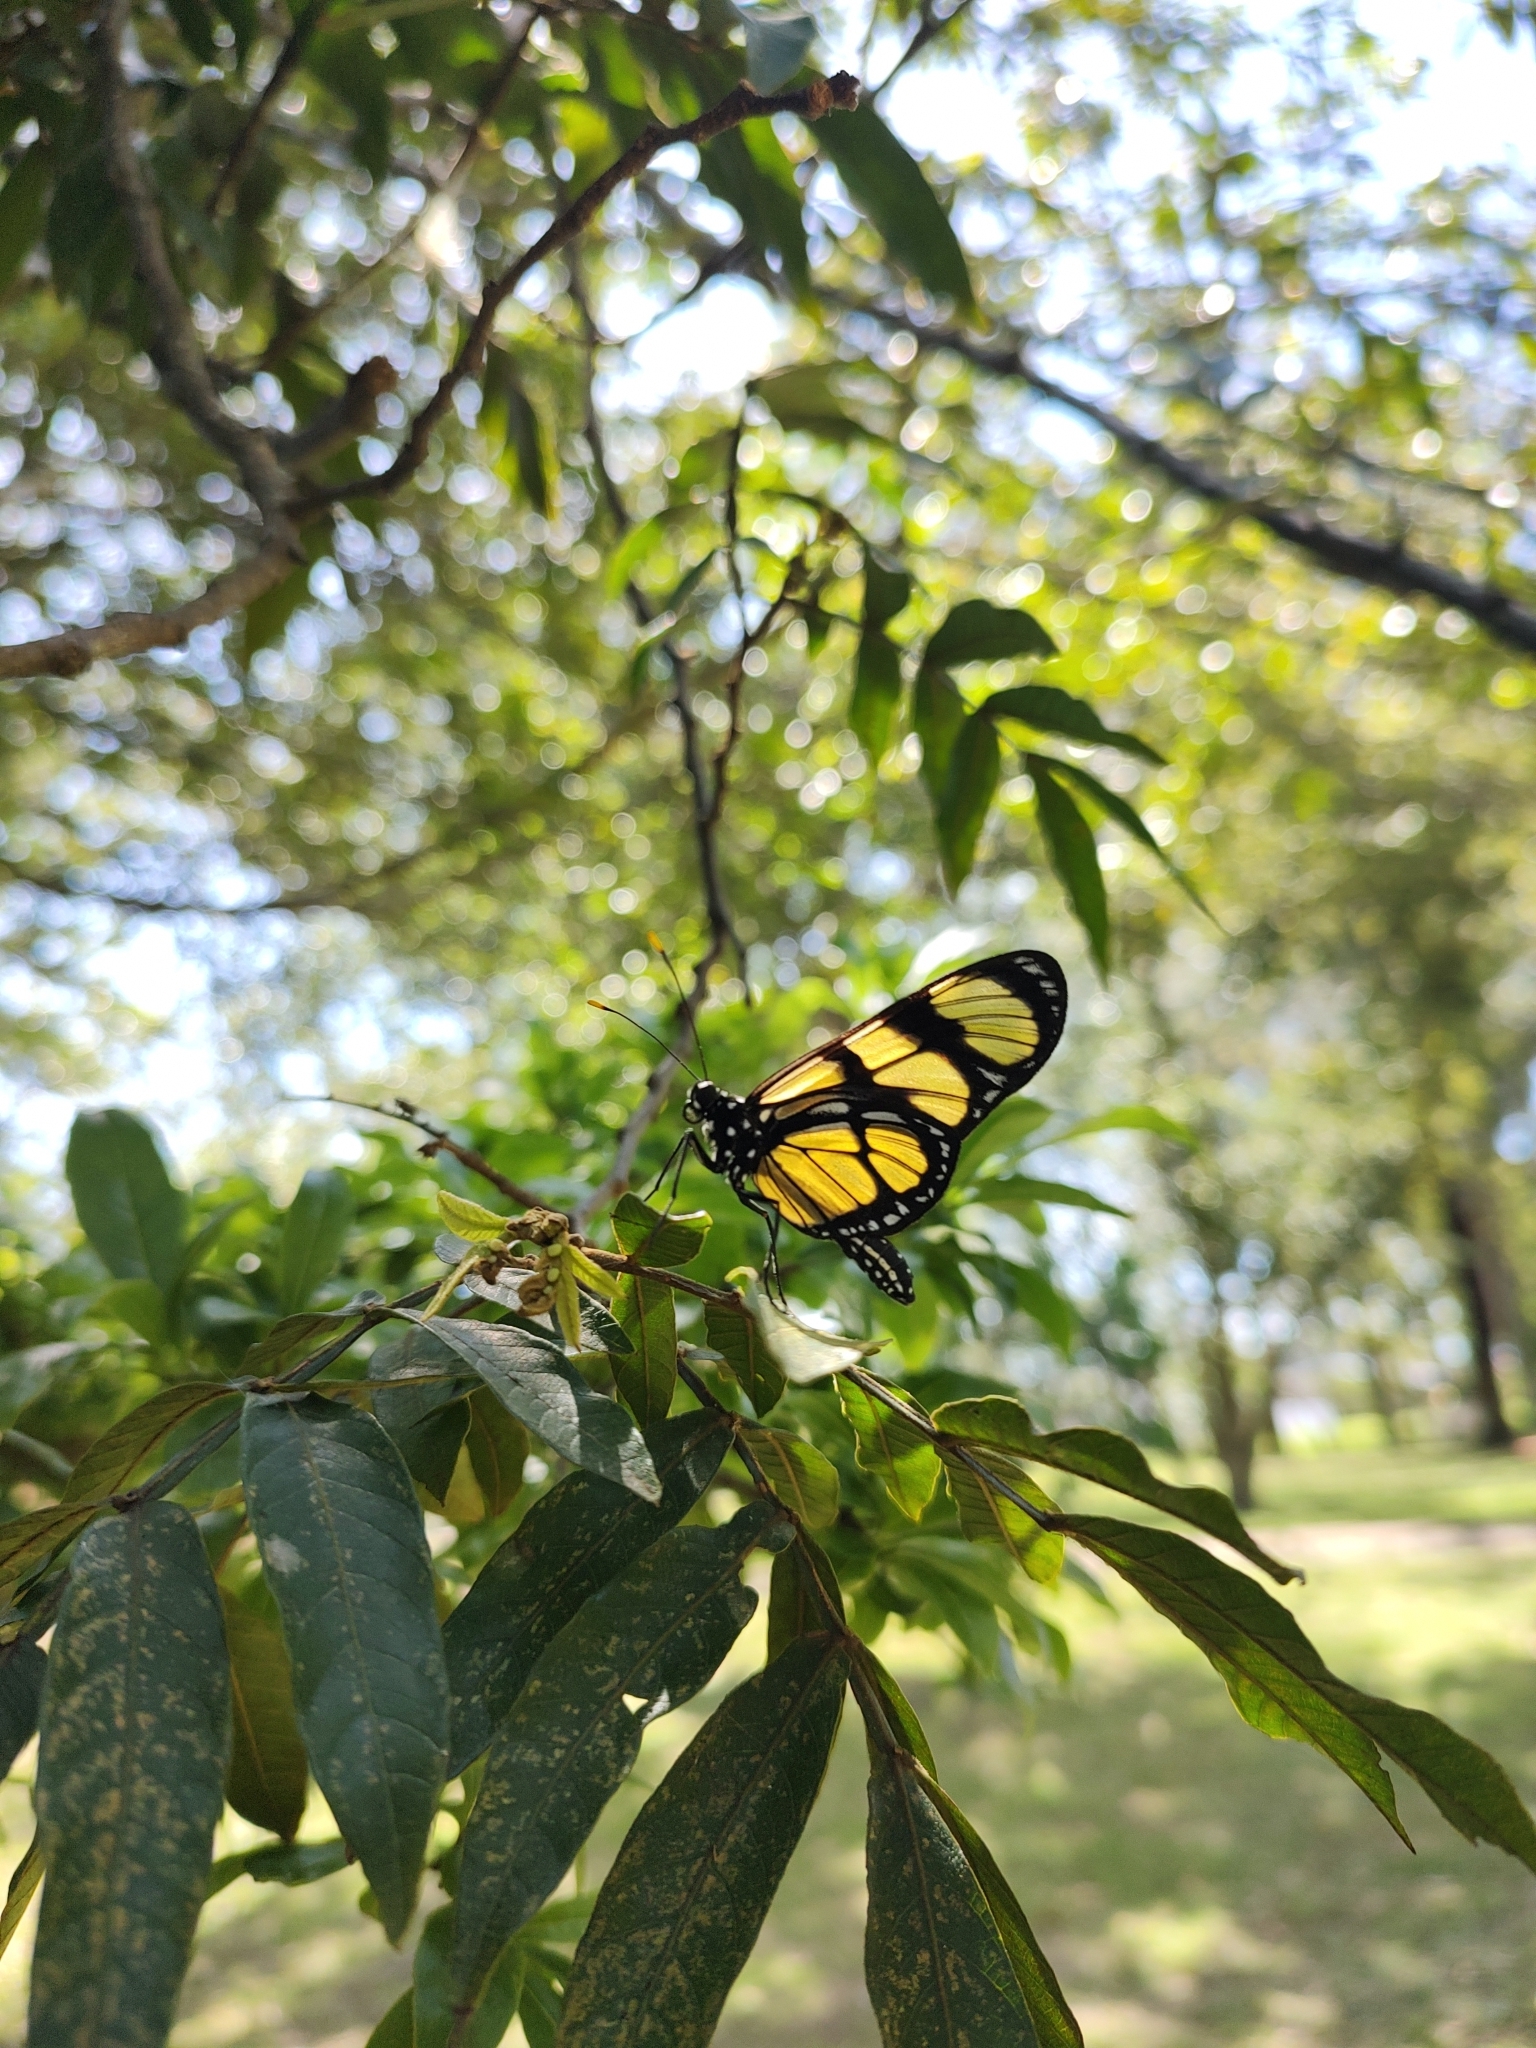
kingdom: Animalia
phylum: Arthropoda
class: Insecta
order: Lepidoptera
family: Nymphalidae
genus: Methona
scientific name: Methona themisto
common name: Themisto amberwing
